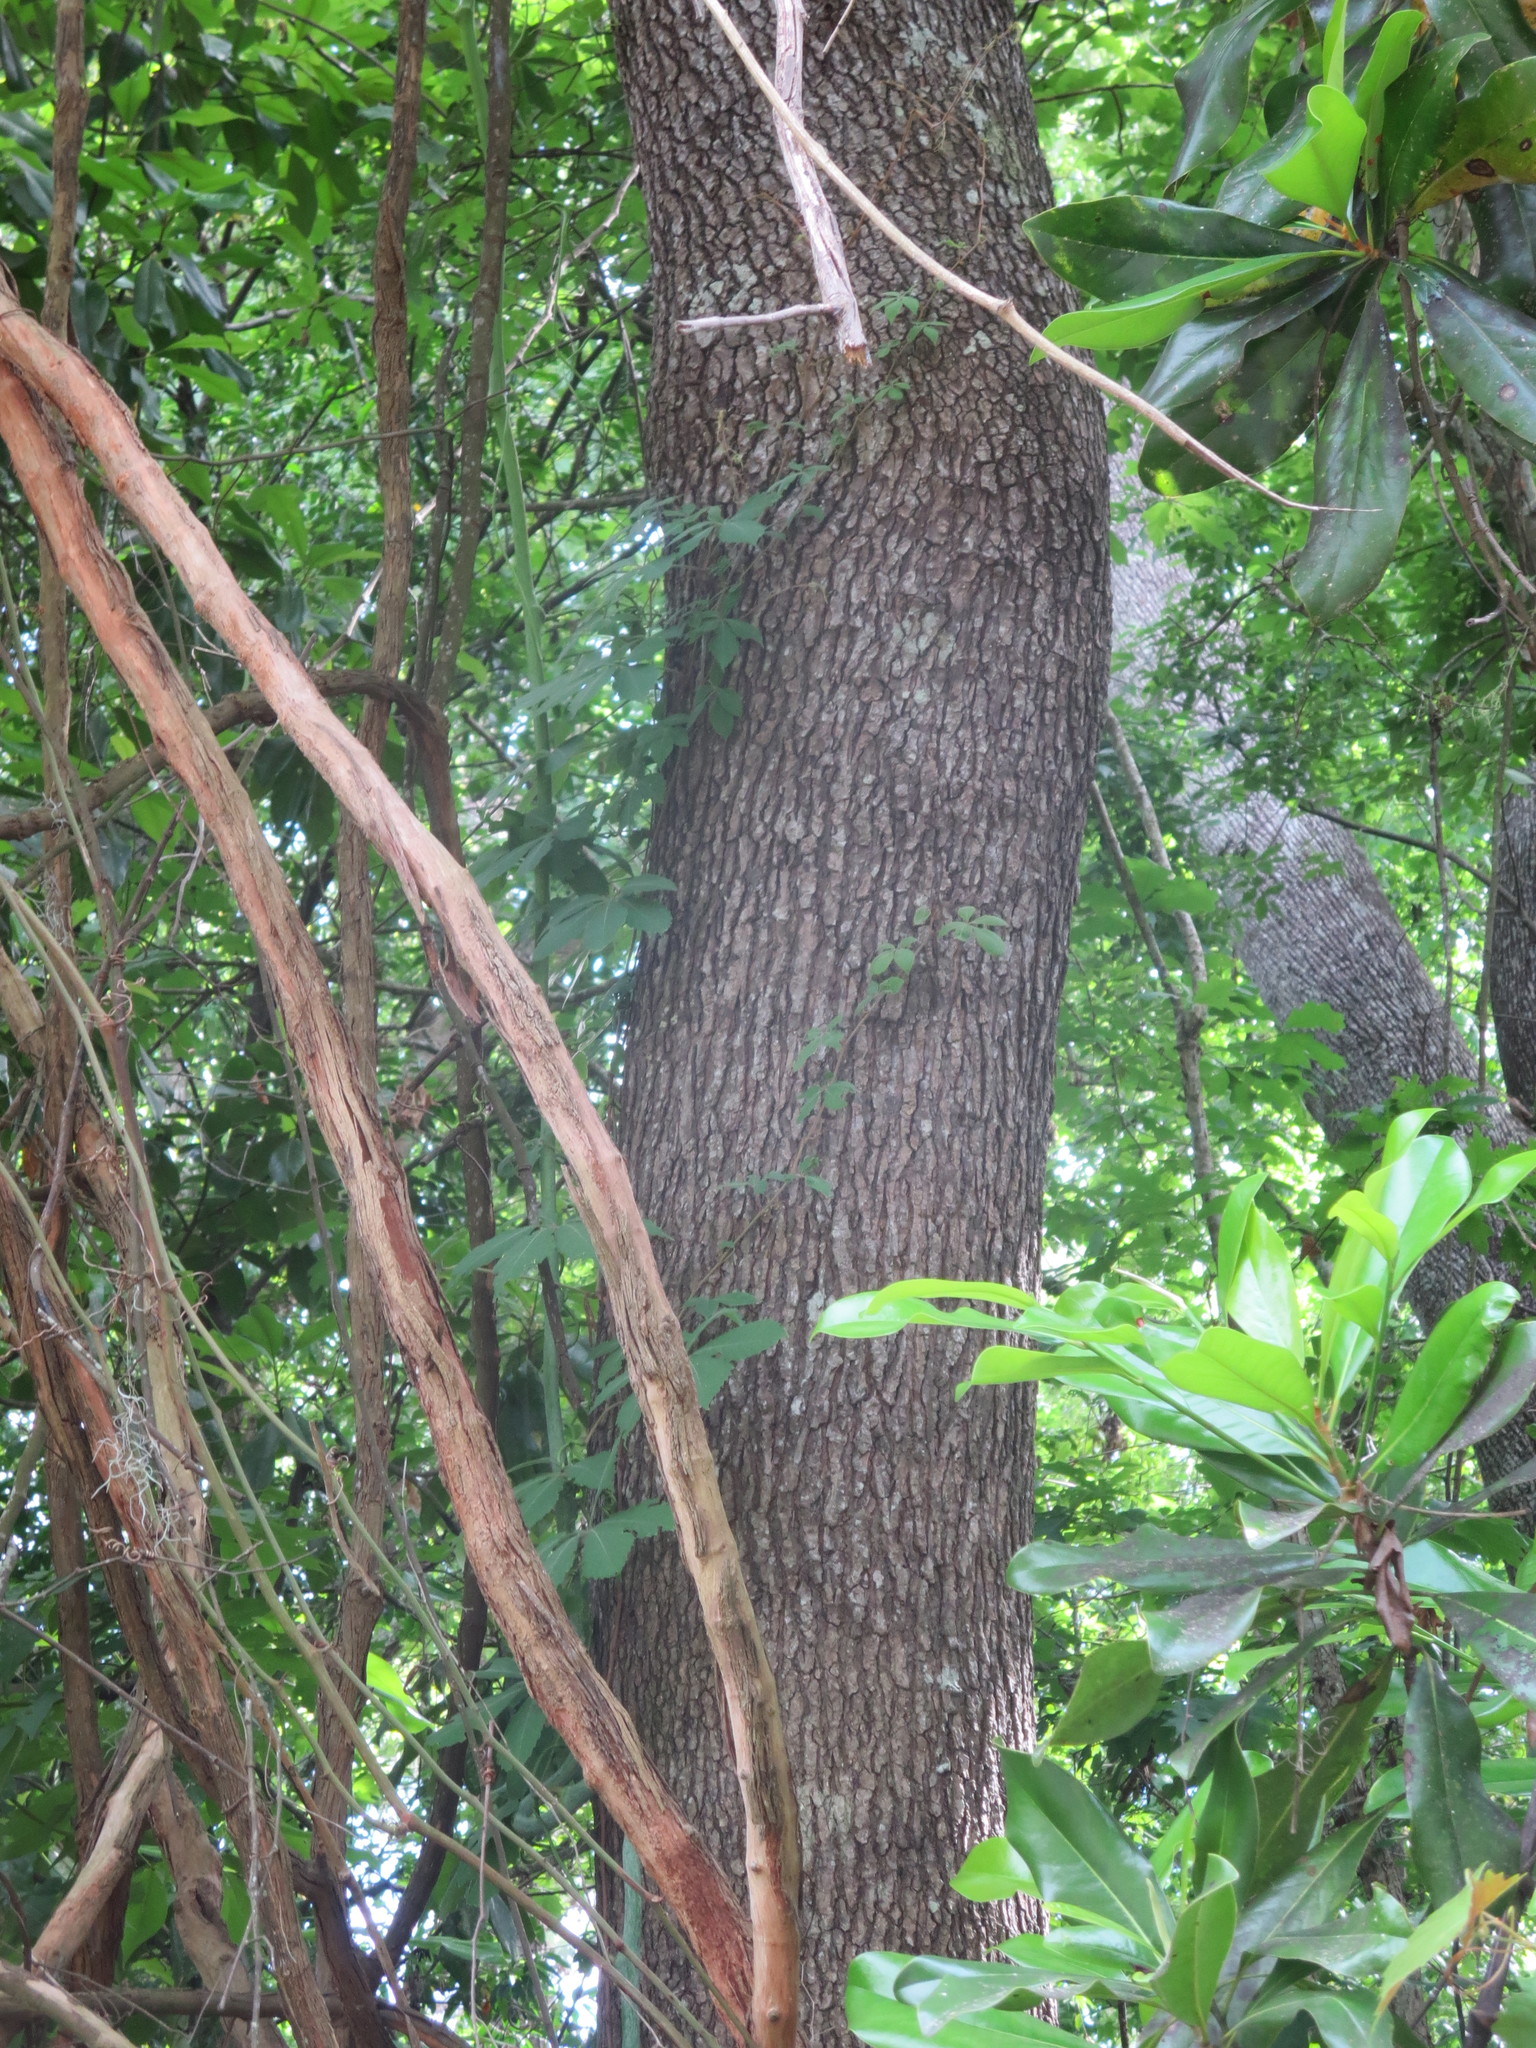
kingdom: Plantae
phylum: Tracheophyta
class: Magnoliopsida
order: Saxifragales
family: Altingiaceae
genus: Liquidambar
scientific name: Liquidambar styraciflua
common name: Sweet gum
